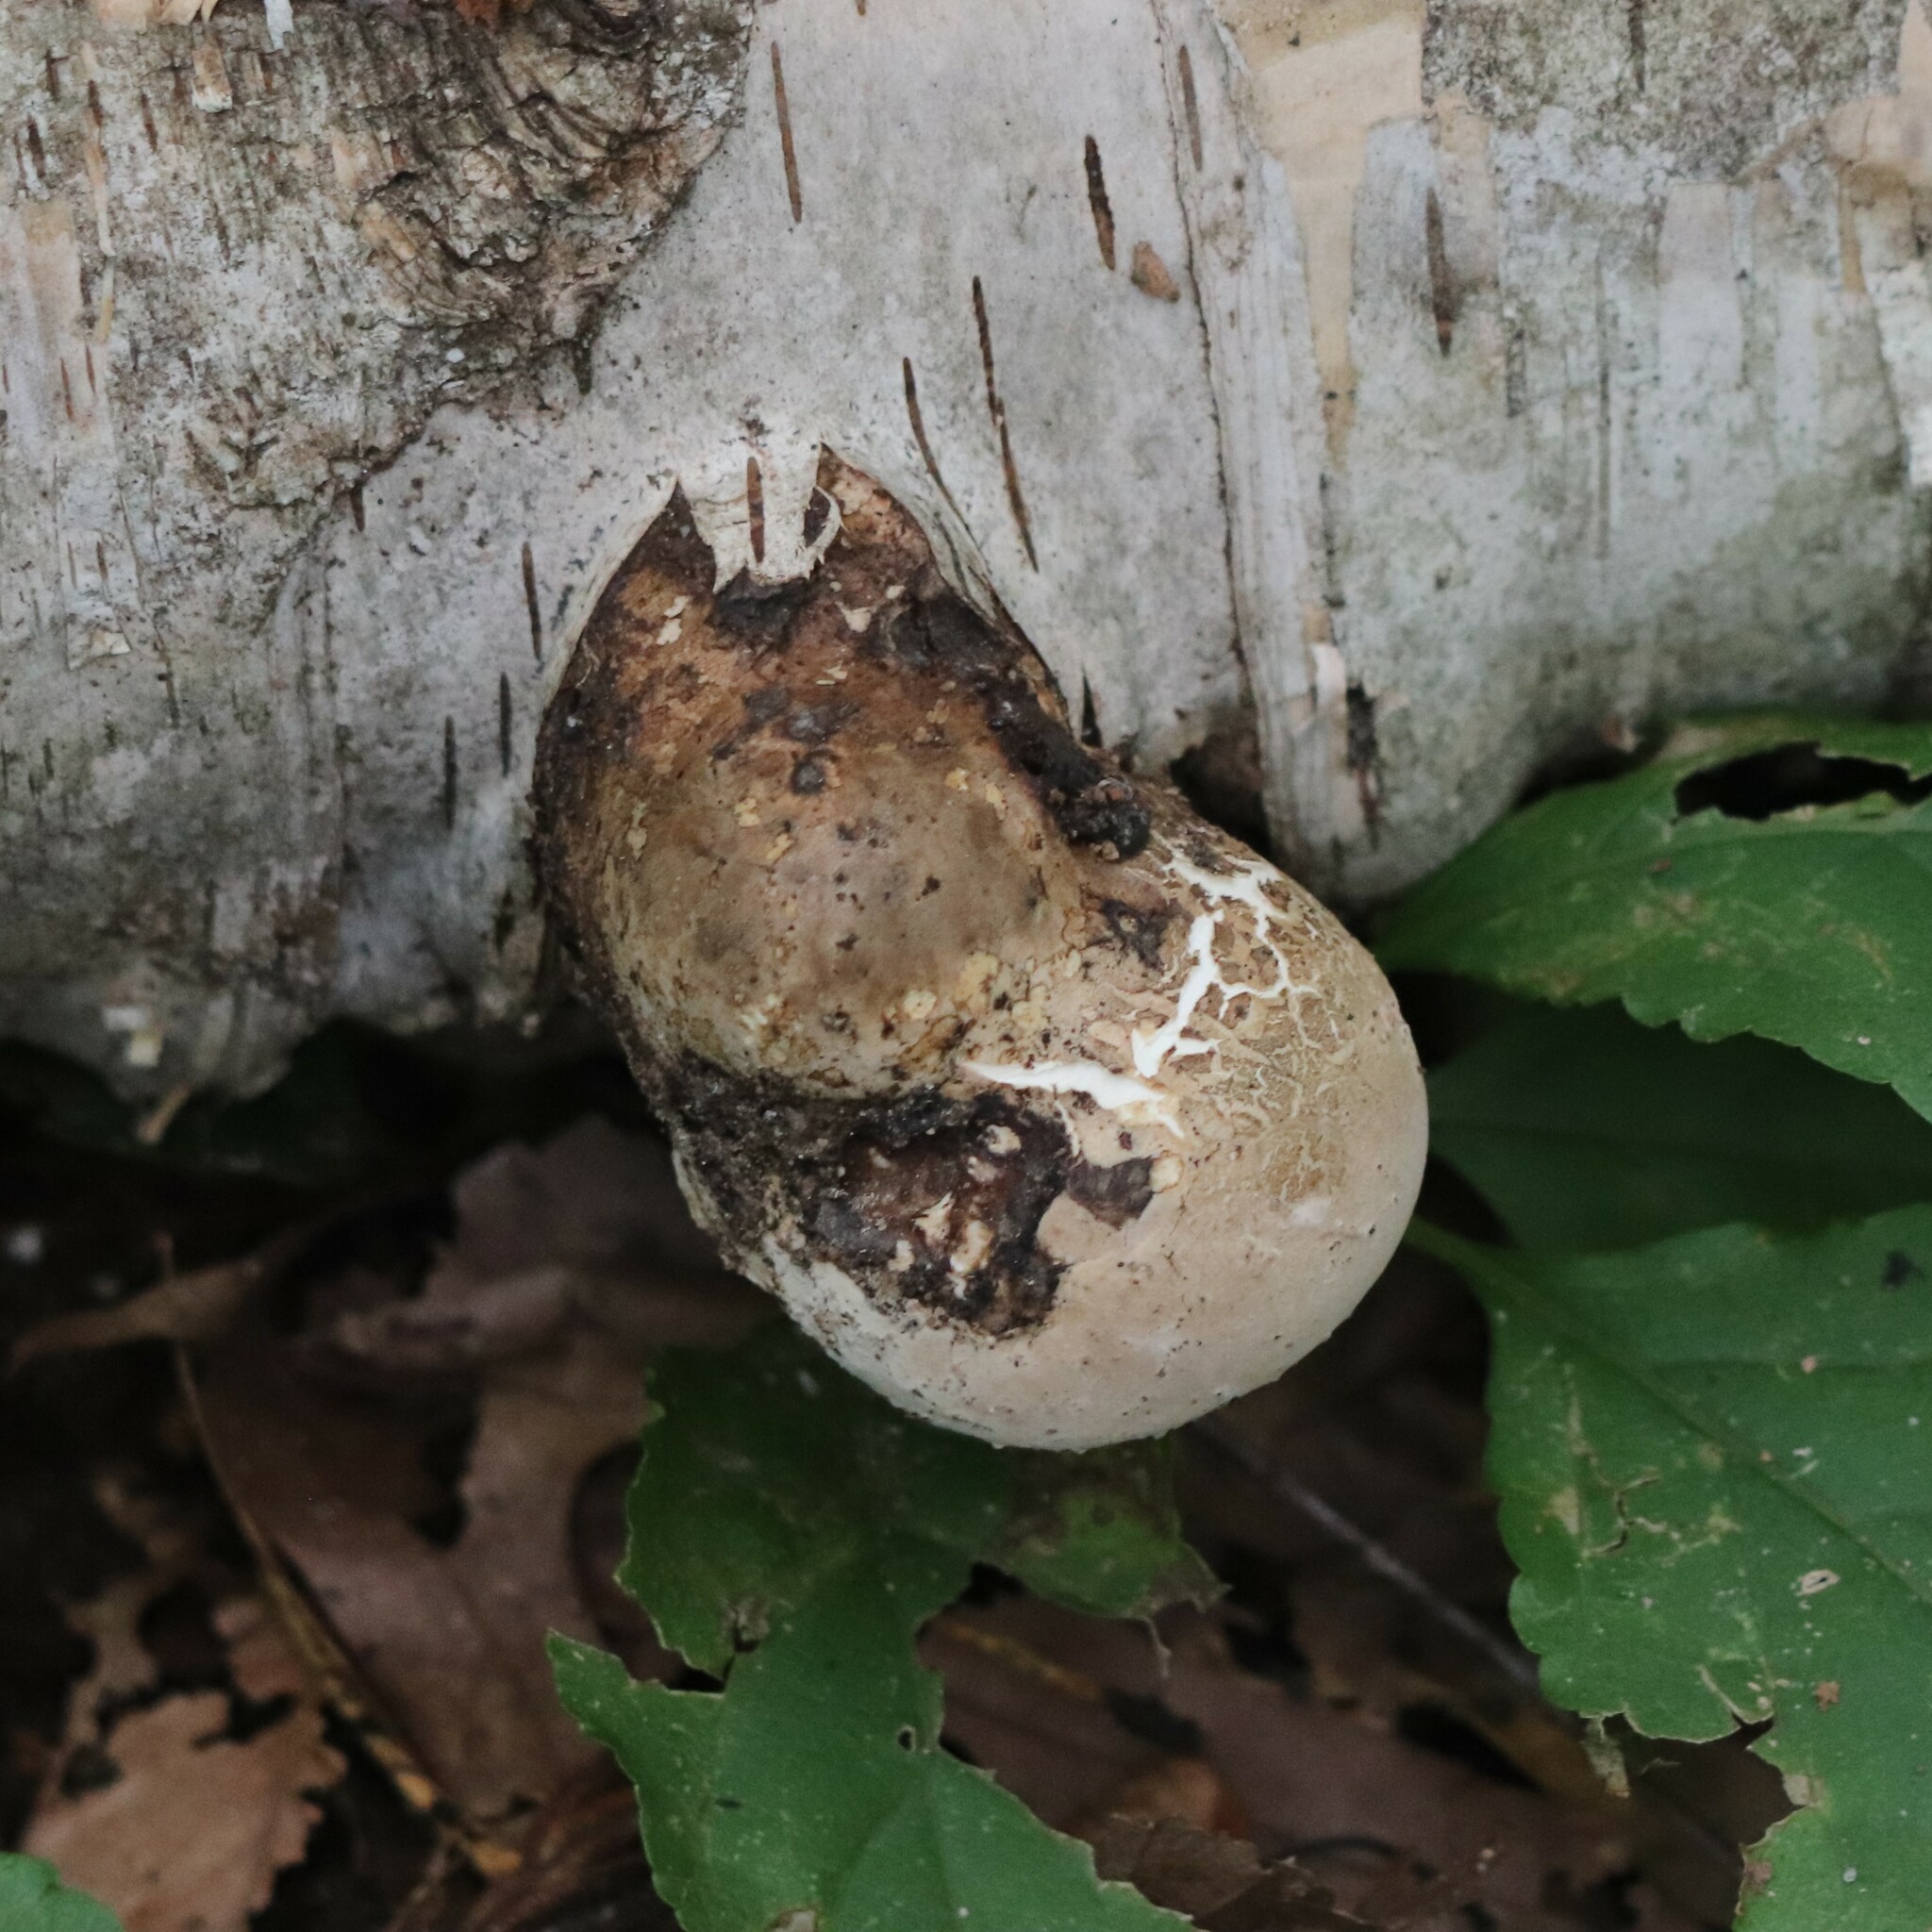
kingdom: Fungi
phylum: Basidiomycota
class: Agaricomycetes
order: Polyporales
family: Fomitopsidaceae
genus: Fomitopsis
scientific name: Fomitopsis betulina
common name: Birch polypore
